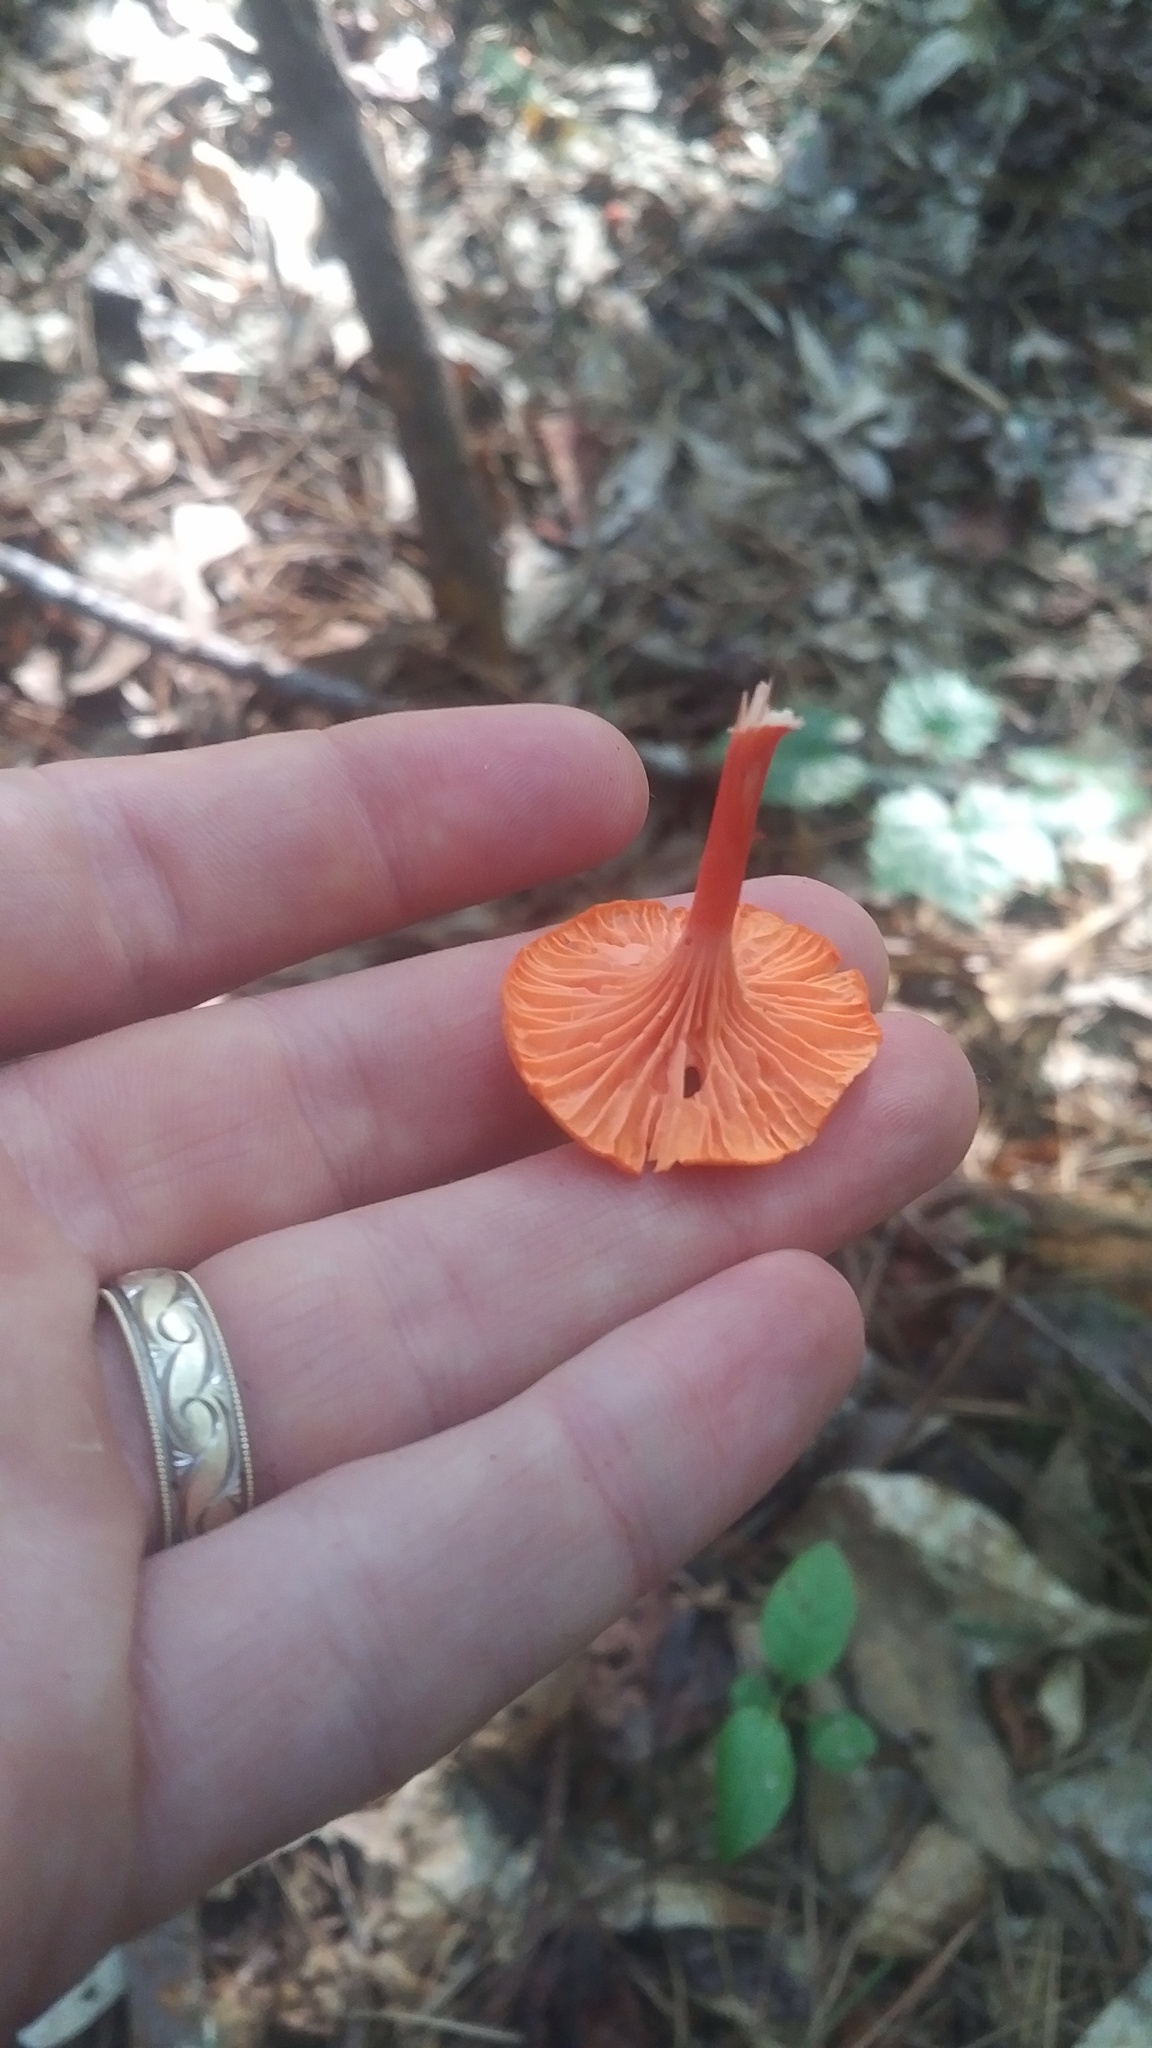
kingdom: Fungi
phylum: Basidiomycota
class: Agaricomycetes
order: Cantharellales
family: Hydnaceae
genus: Cantharellus
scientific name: Cantharellus cinnabarinus
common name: Cinnabar chanterelle
